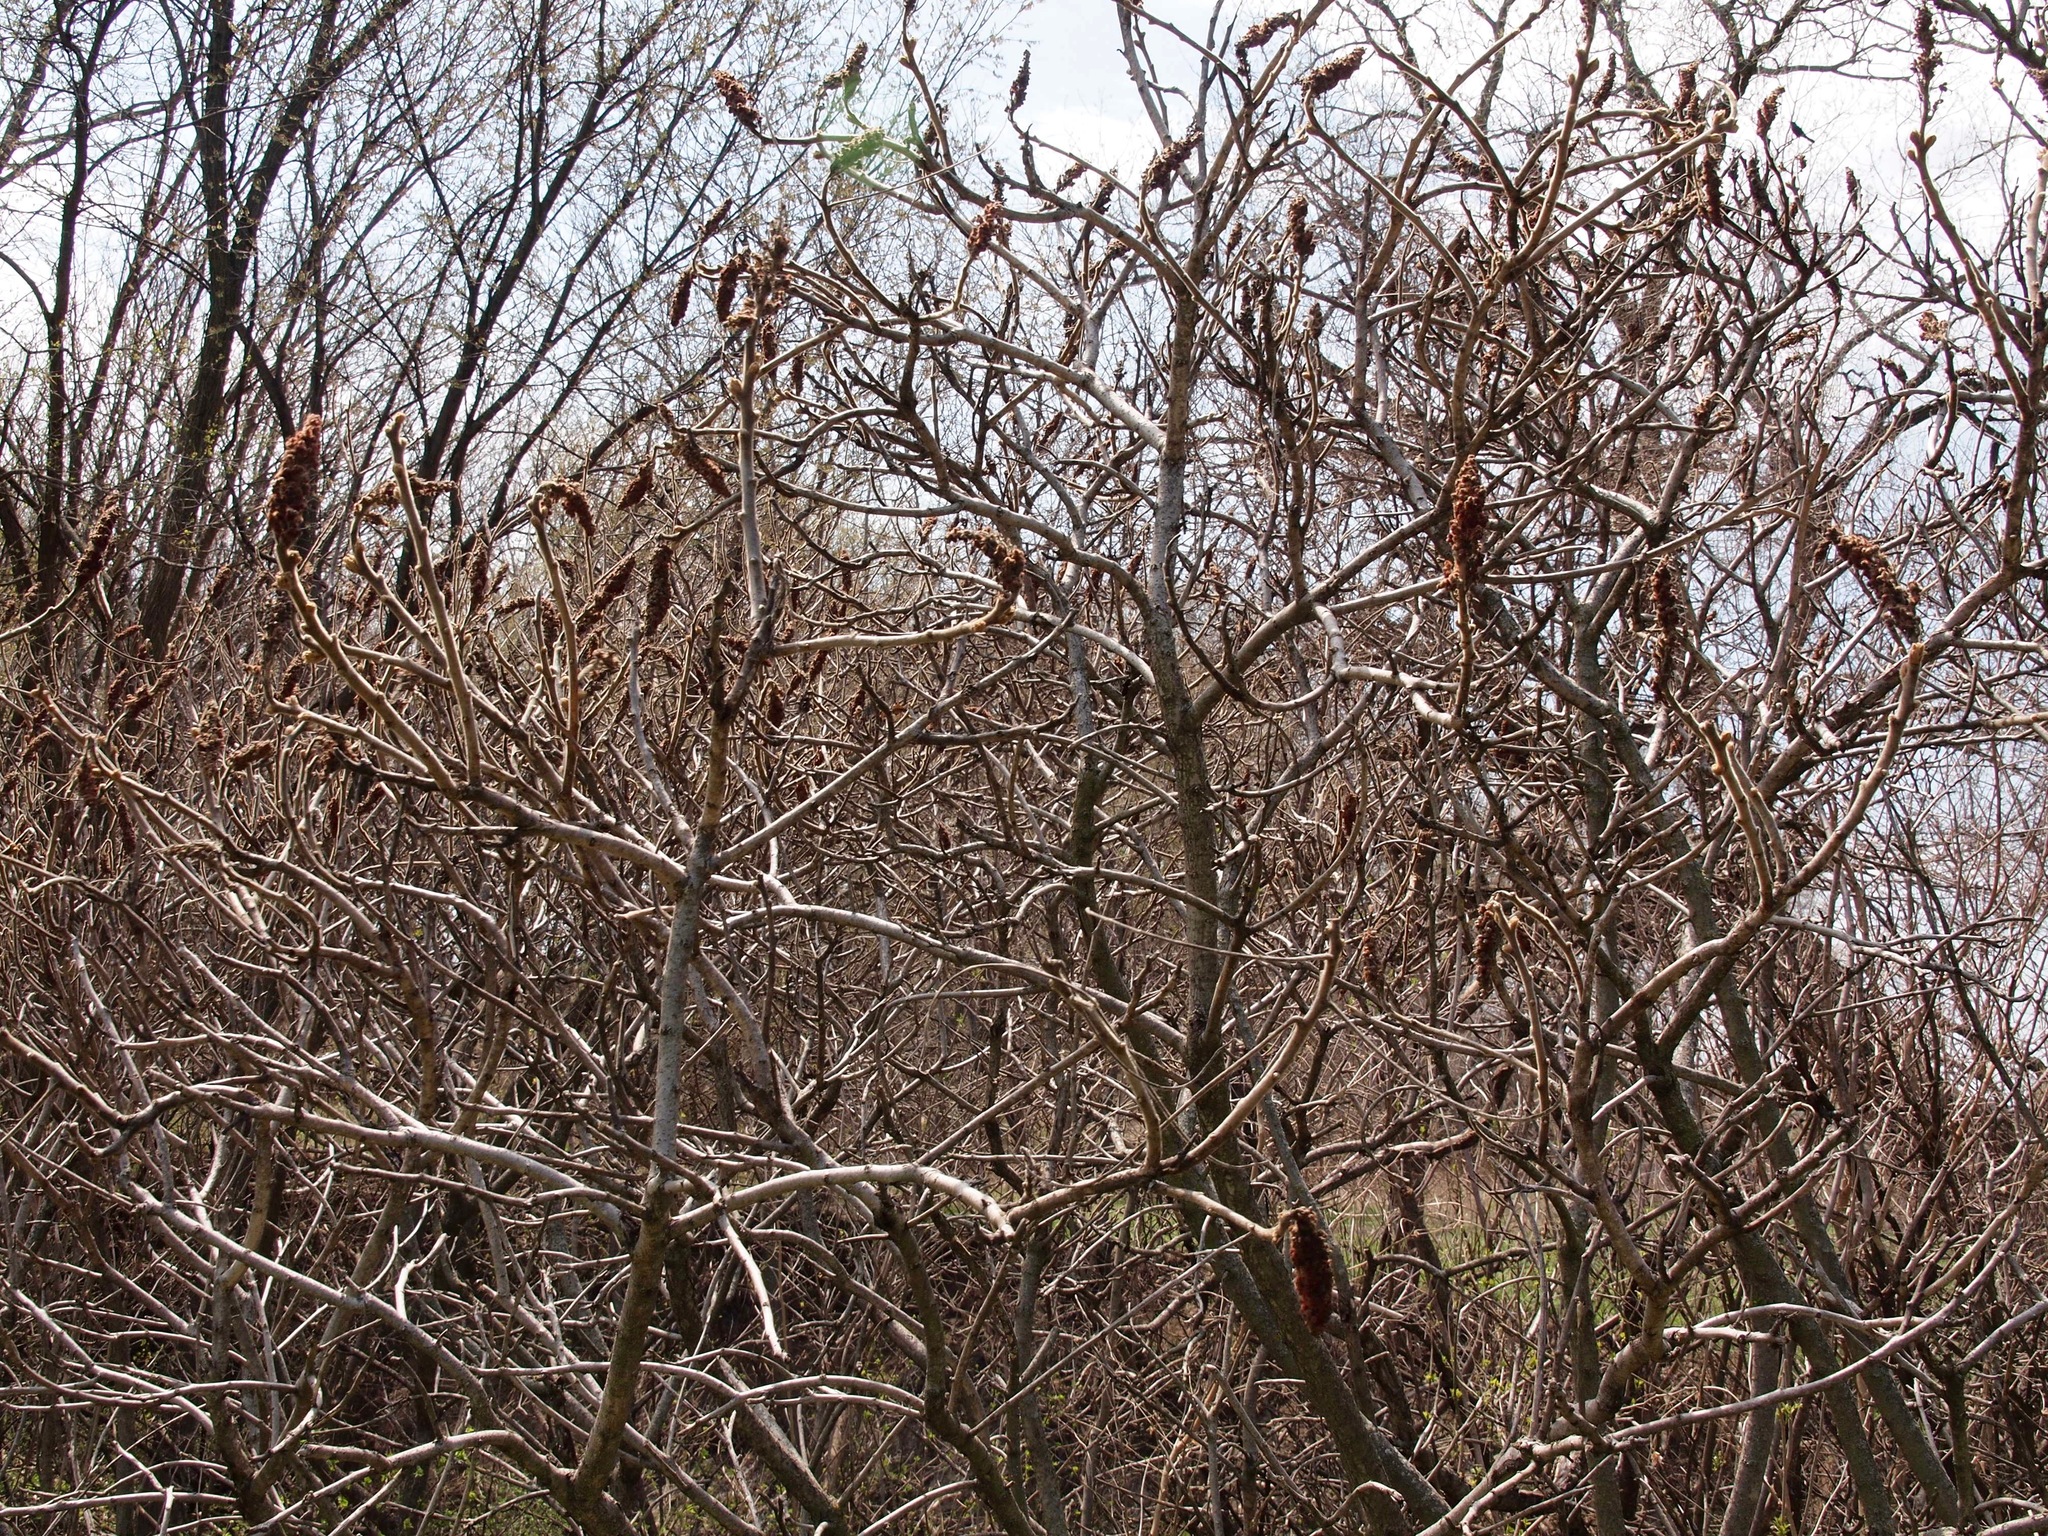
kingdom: Plantae
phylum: Tracheophyta
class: Magnoliopsida
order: Sapindales
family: Anacardiaceae
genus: Rhus
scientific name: Rhus typhina
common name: Staghorn sumac
